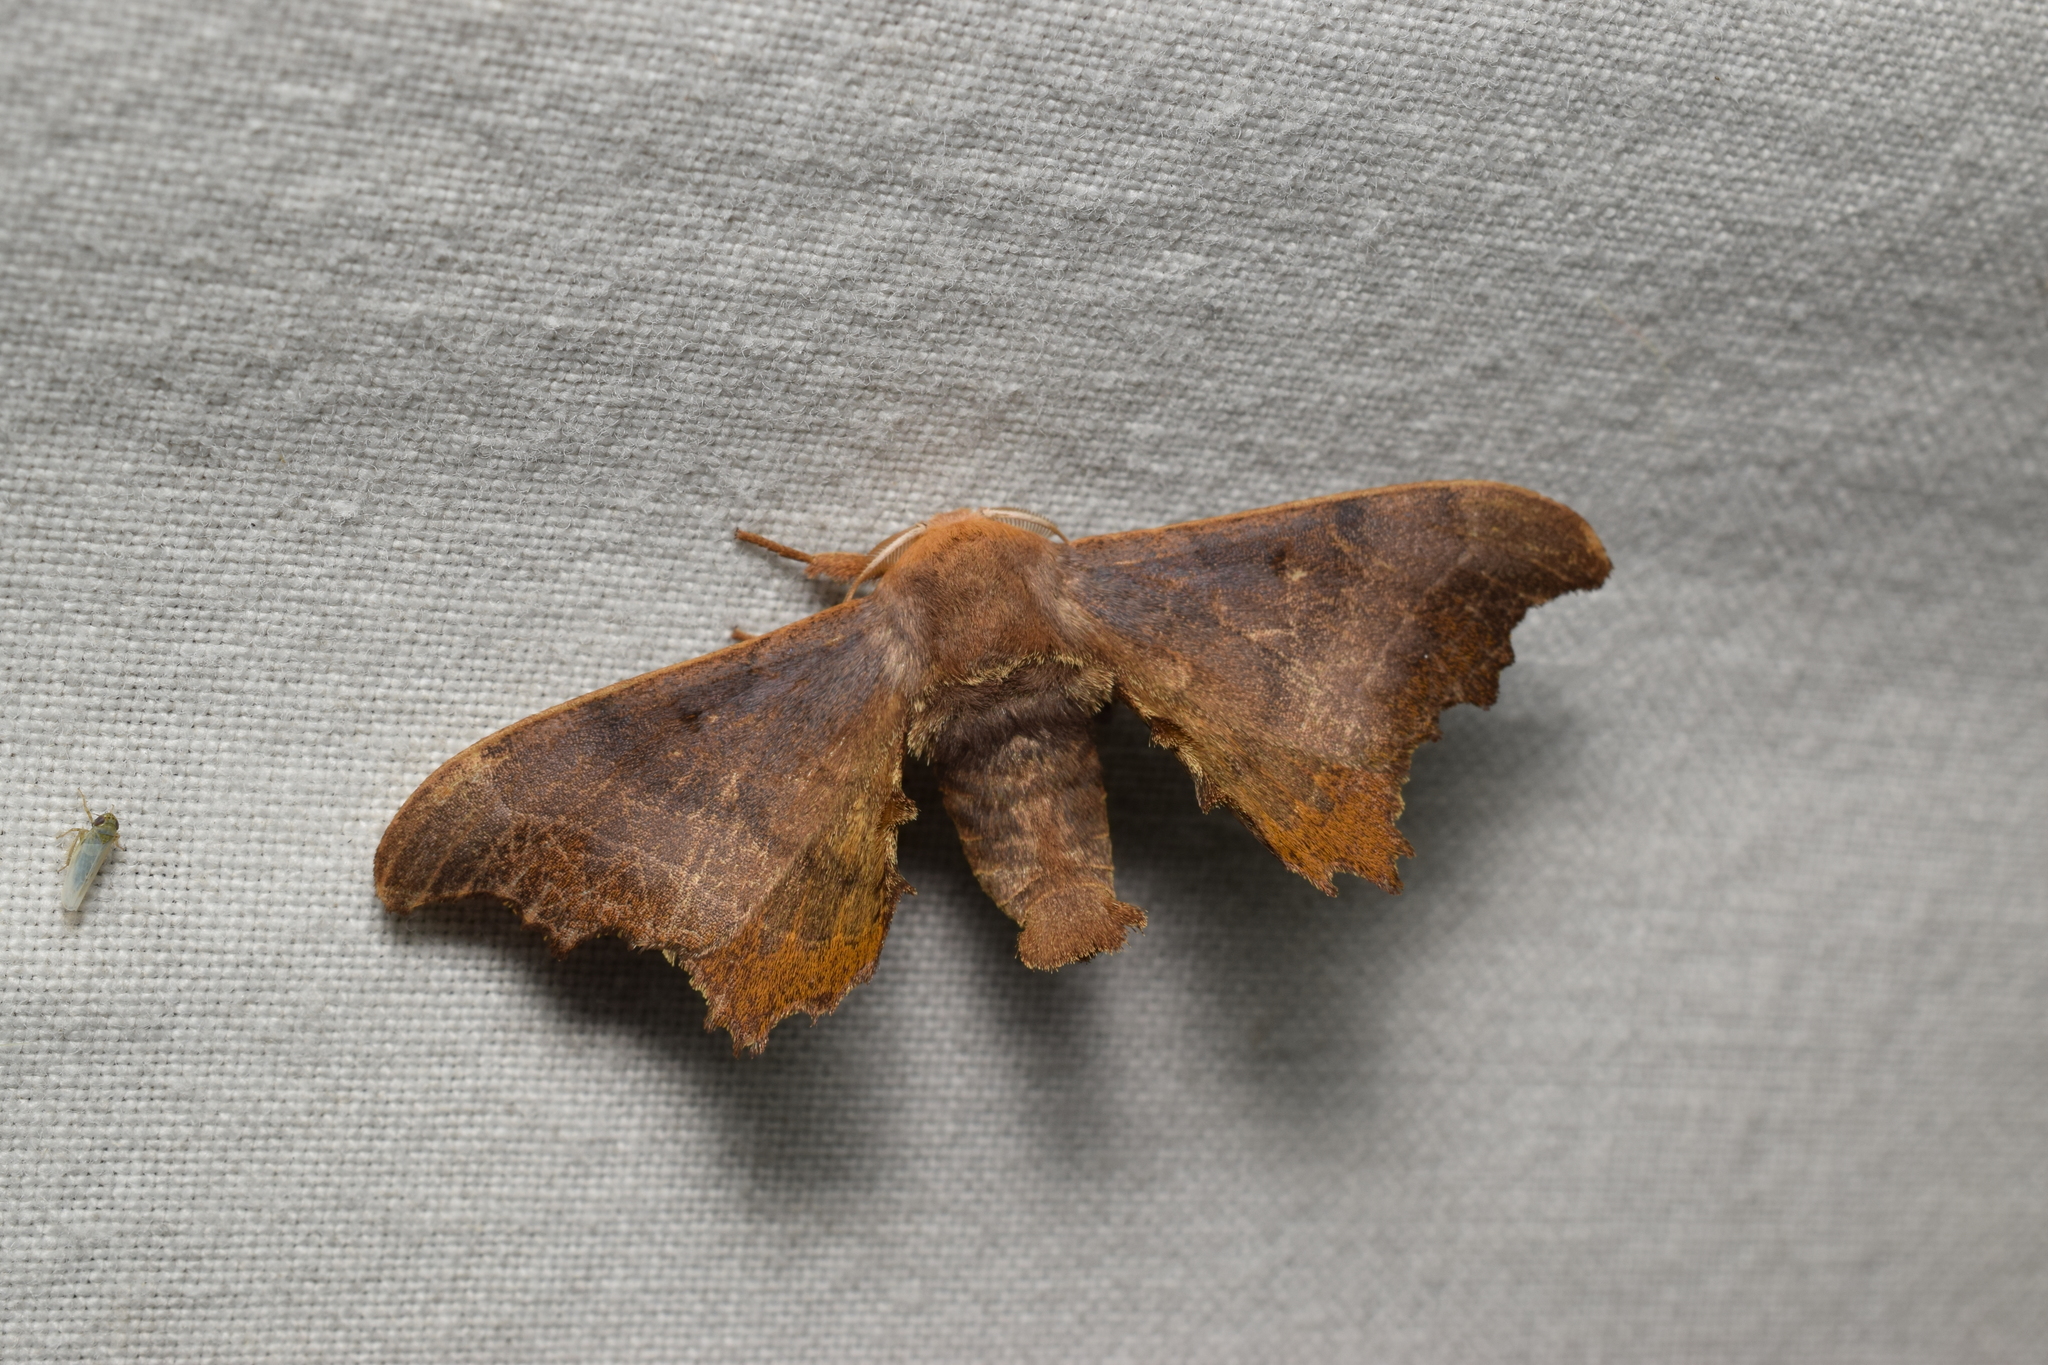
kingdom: Animalia
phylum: Arthropoda
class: Insecta
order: Lepidoptera
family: Endromidae
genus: Oberthueria
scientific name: Oberthueria falcigera
